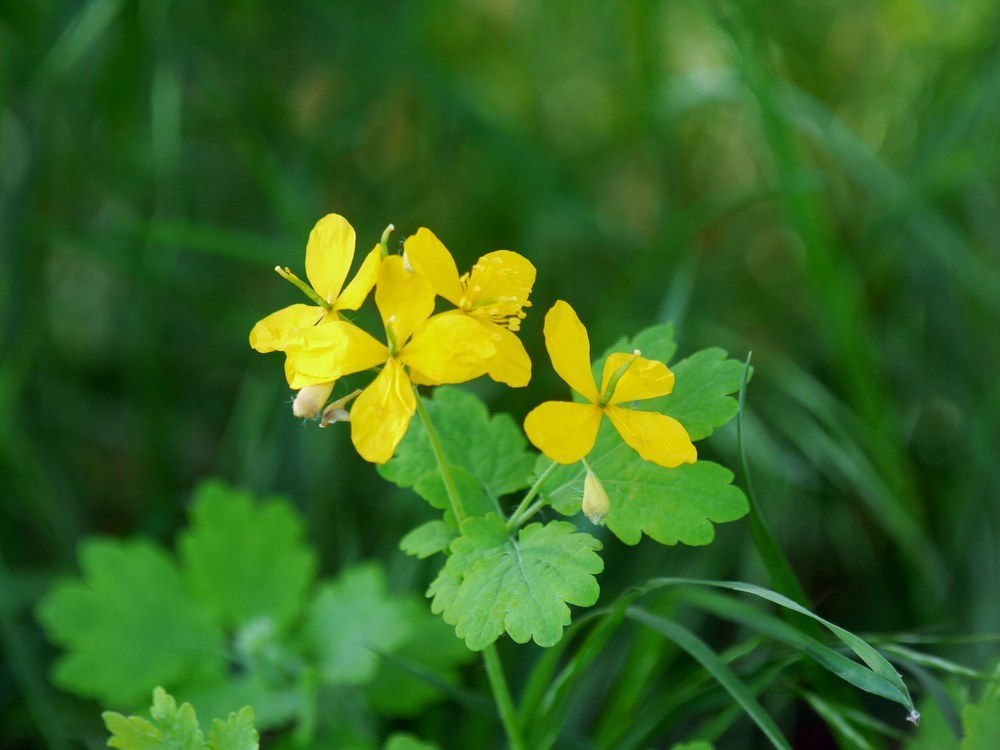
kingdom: Plantae
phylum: Tracheophyta
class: Magnoliopsida
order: Ranunculales
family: Papaveraceae
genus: Chelidonium
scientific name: Chelidonium majus
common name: Greater celandine
